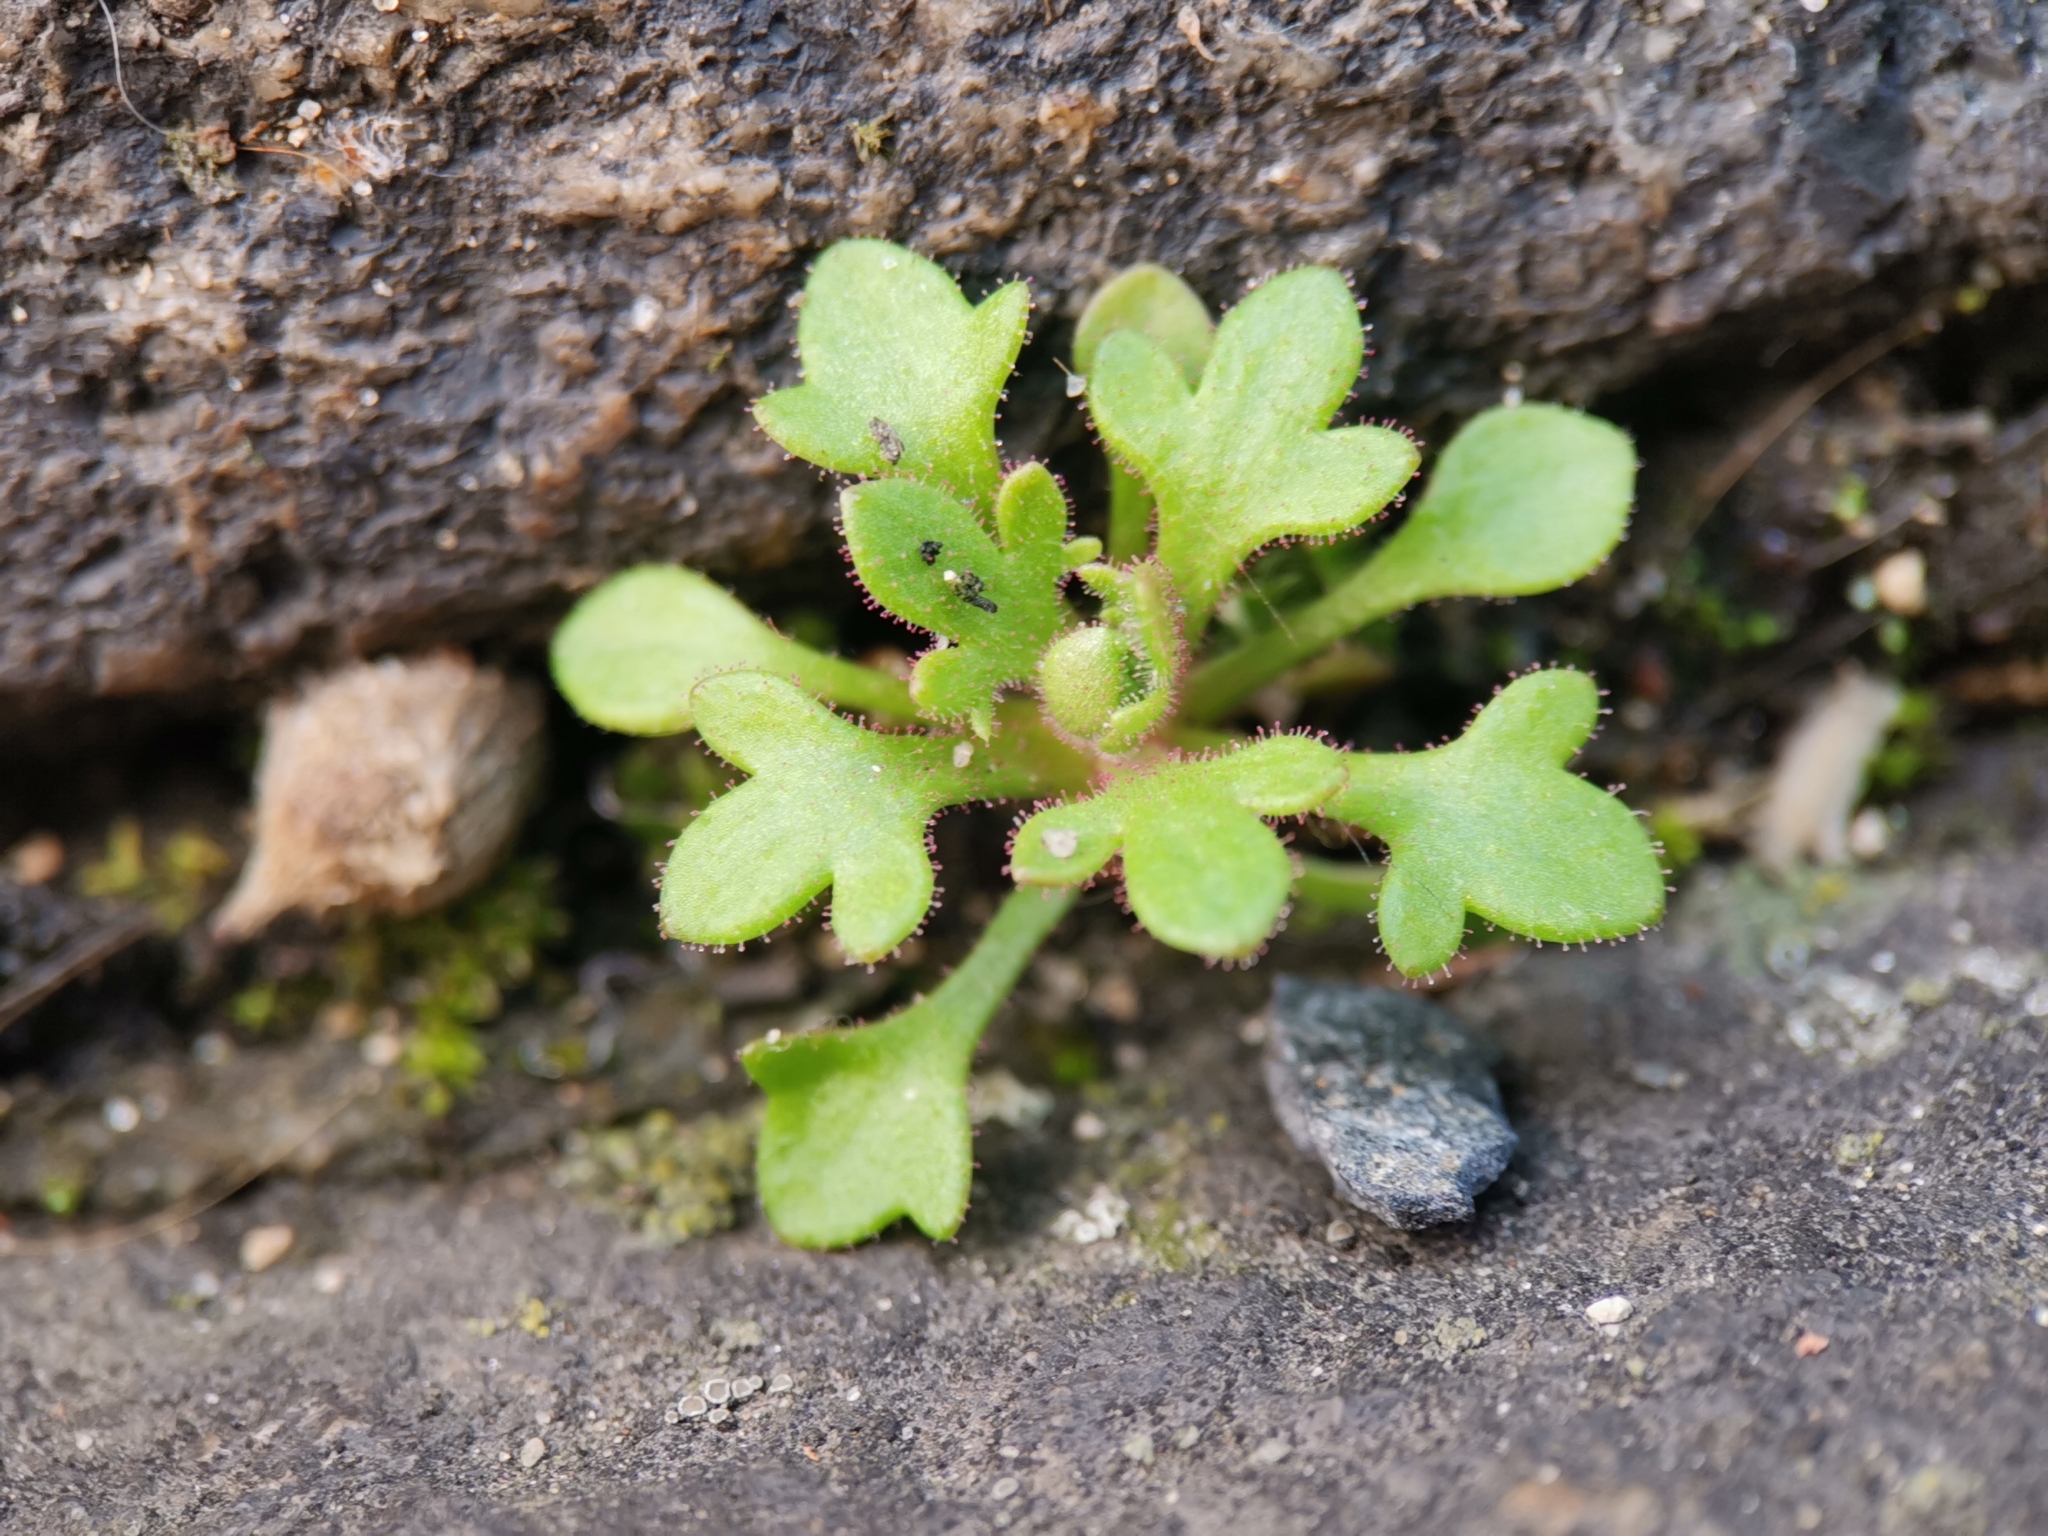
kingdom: Plantae
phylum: Tracheophyta
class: Magnoliopsida
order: Saxifragales
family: Saxifragaceae
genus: Saxifraga
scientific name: Saxifraga tridactylites
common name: Rue-leaved saxifrage
